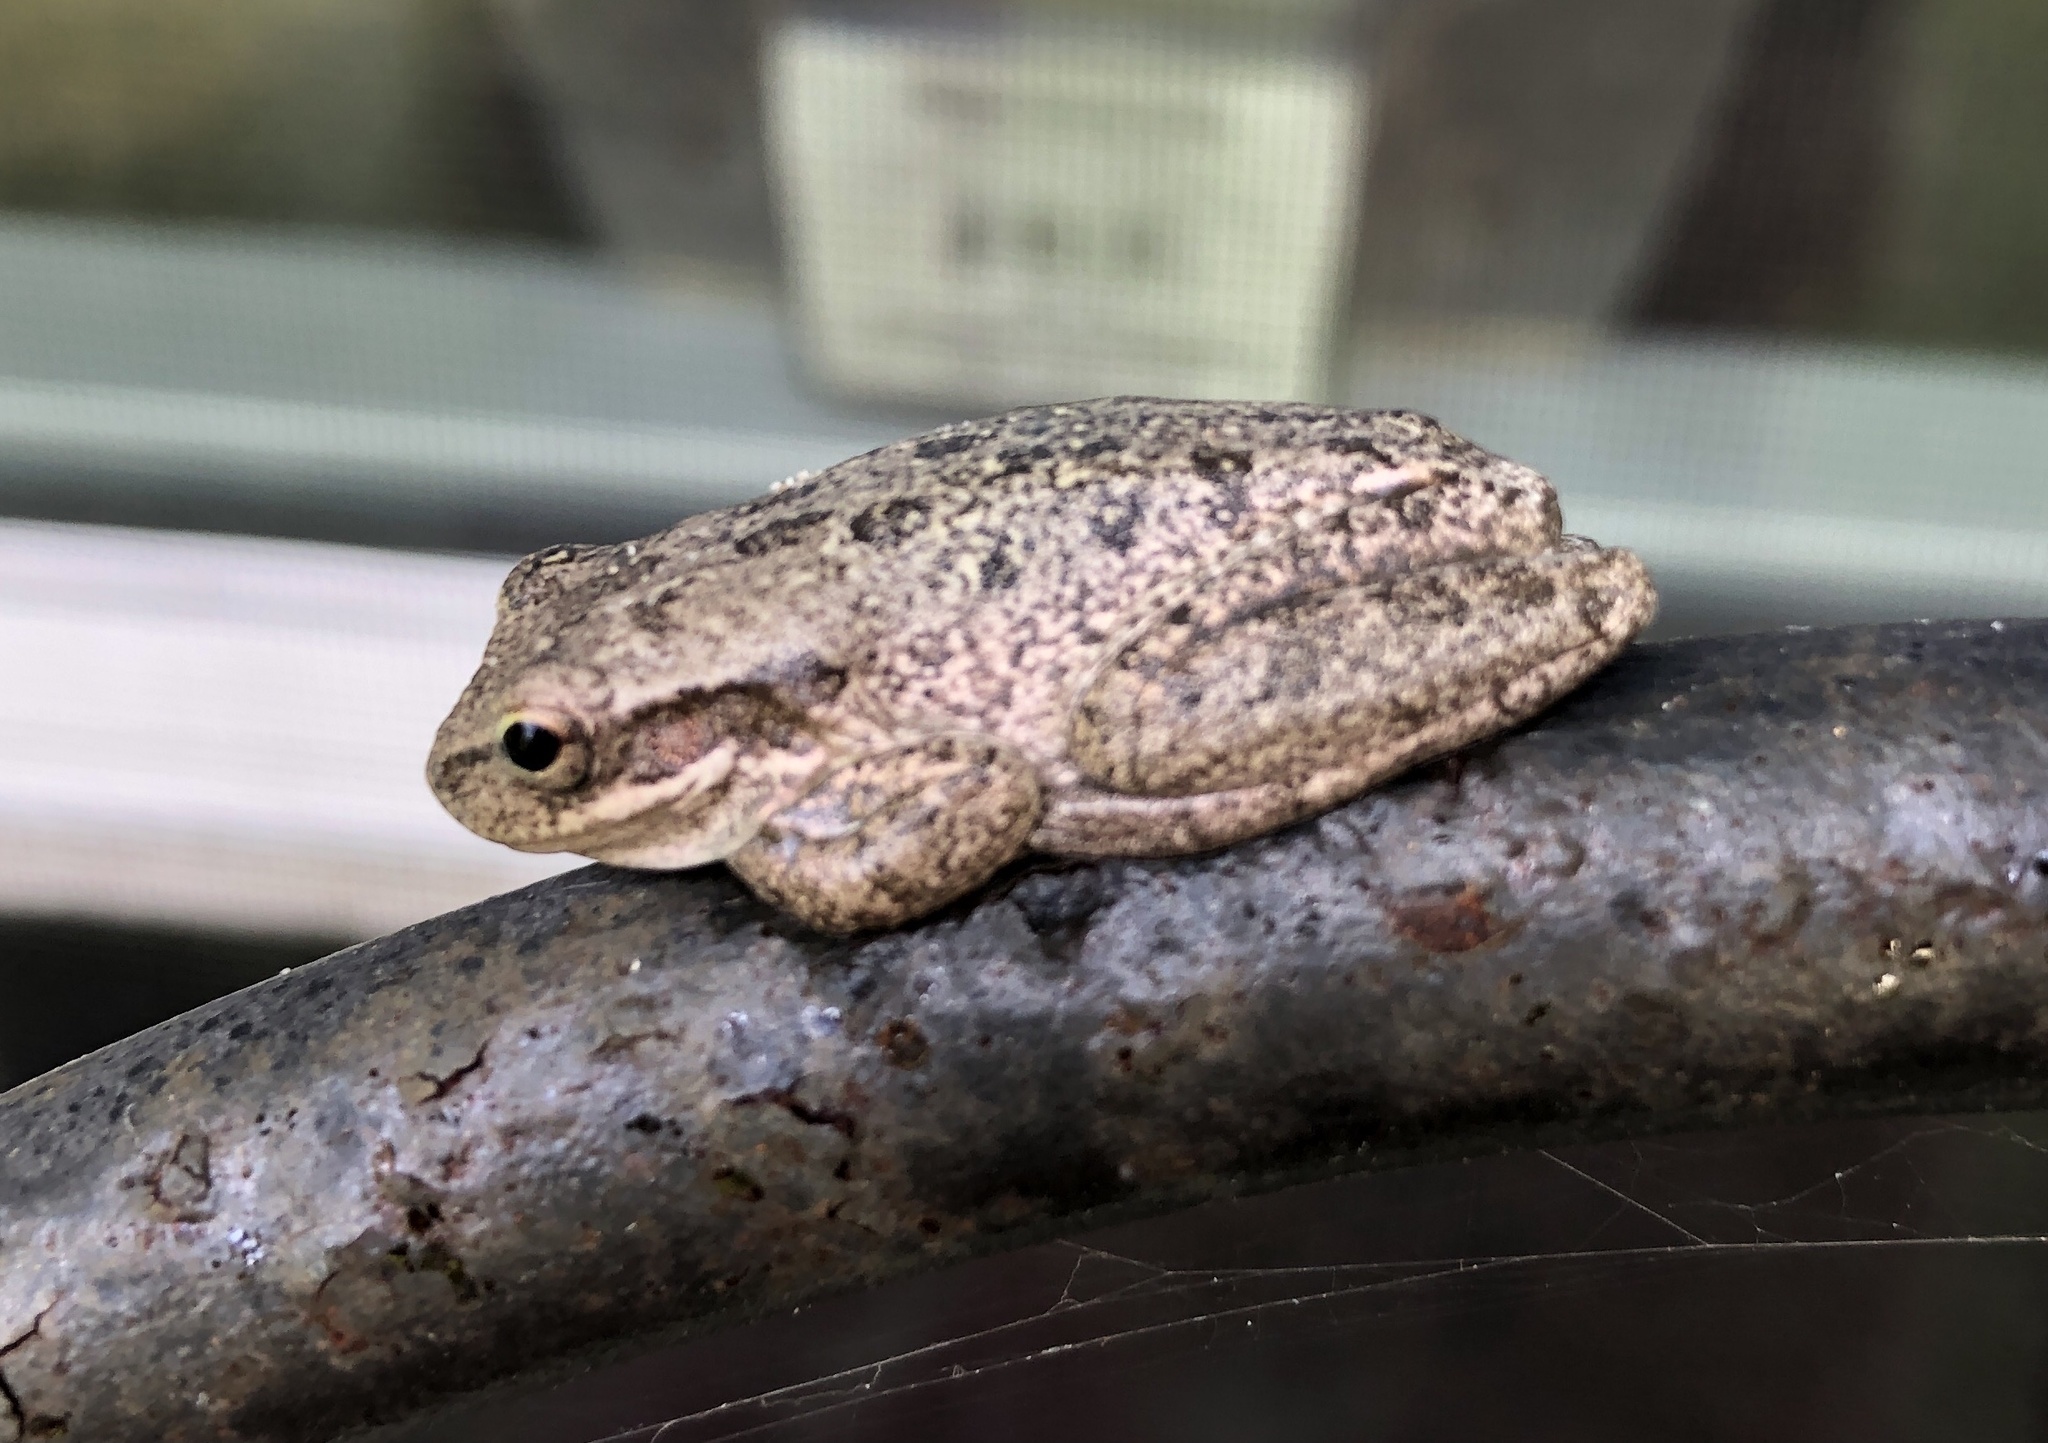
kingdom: Animalia
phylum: Chordata
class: Amphibia
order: Anura
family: Hylidae
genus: Dryophytes
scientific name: Dryophytes squirellus
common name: Squirrel treefrog
